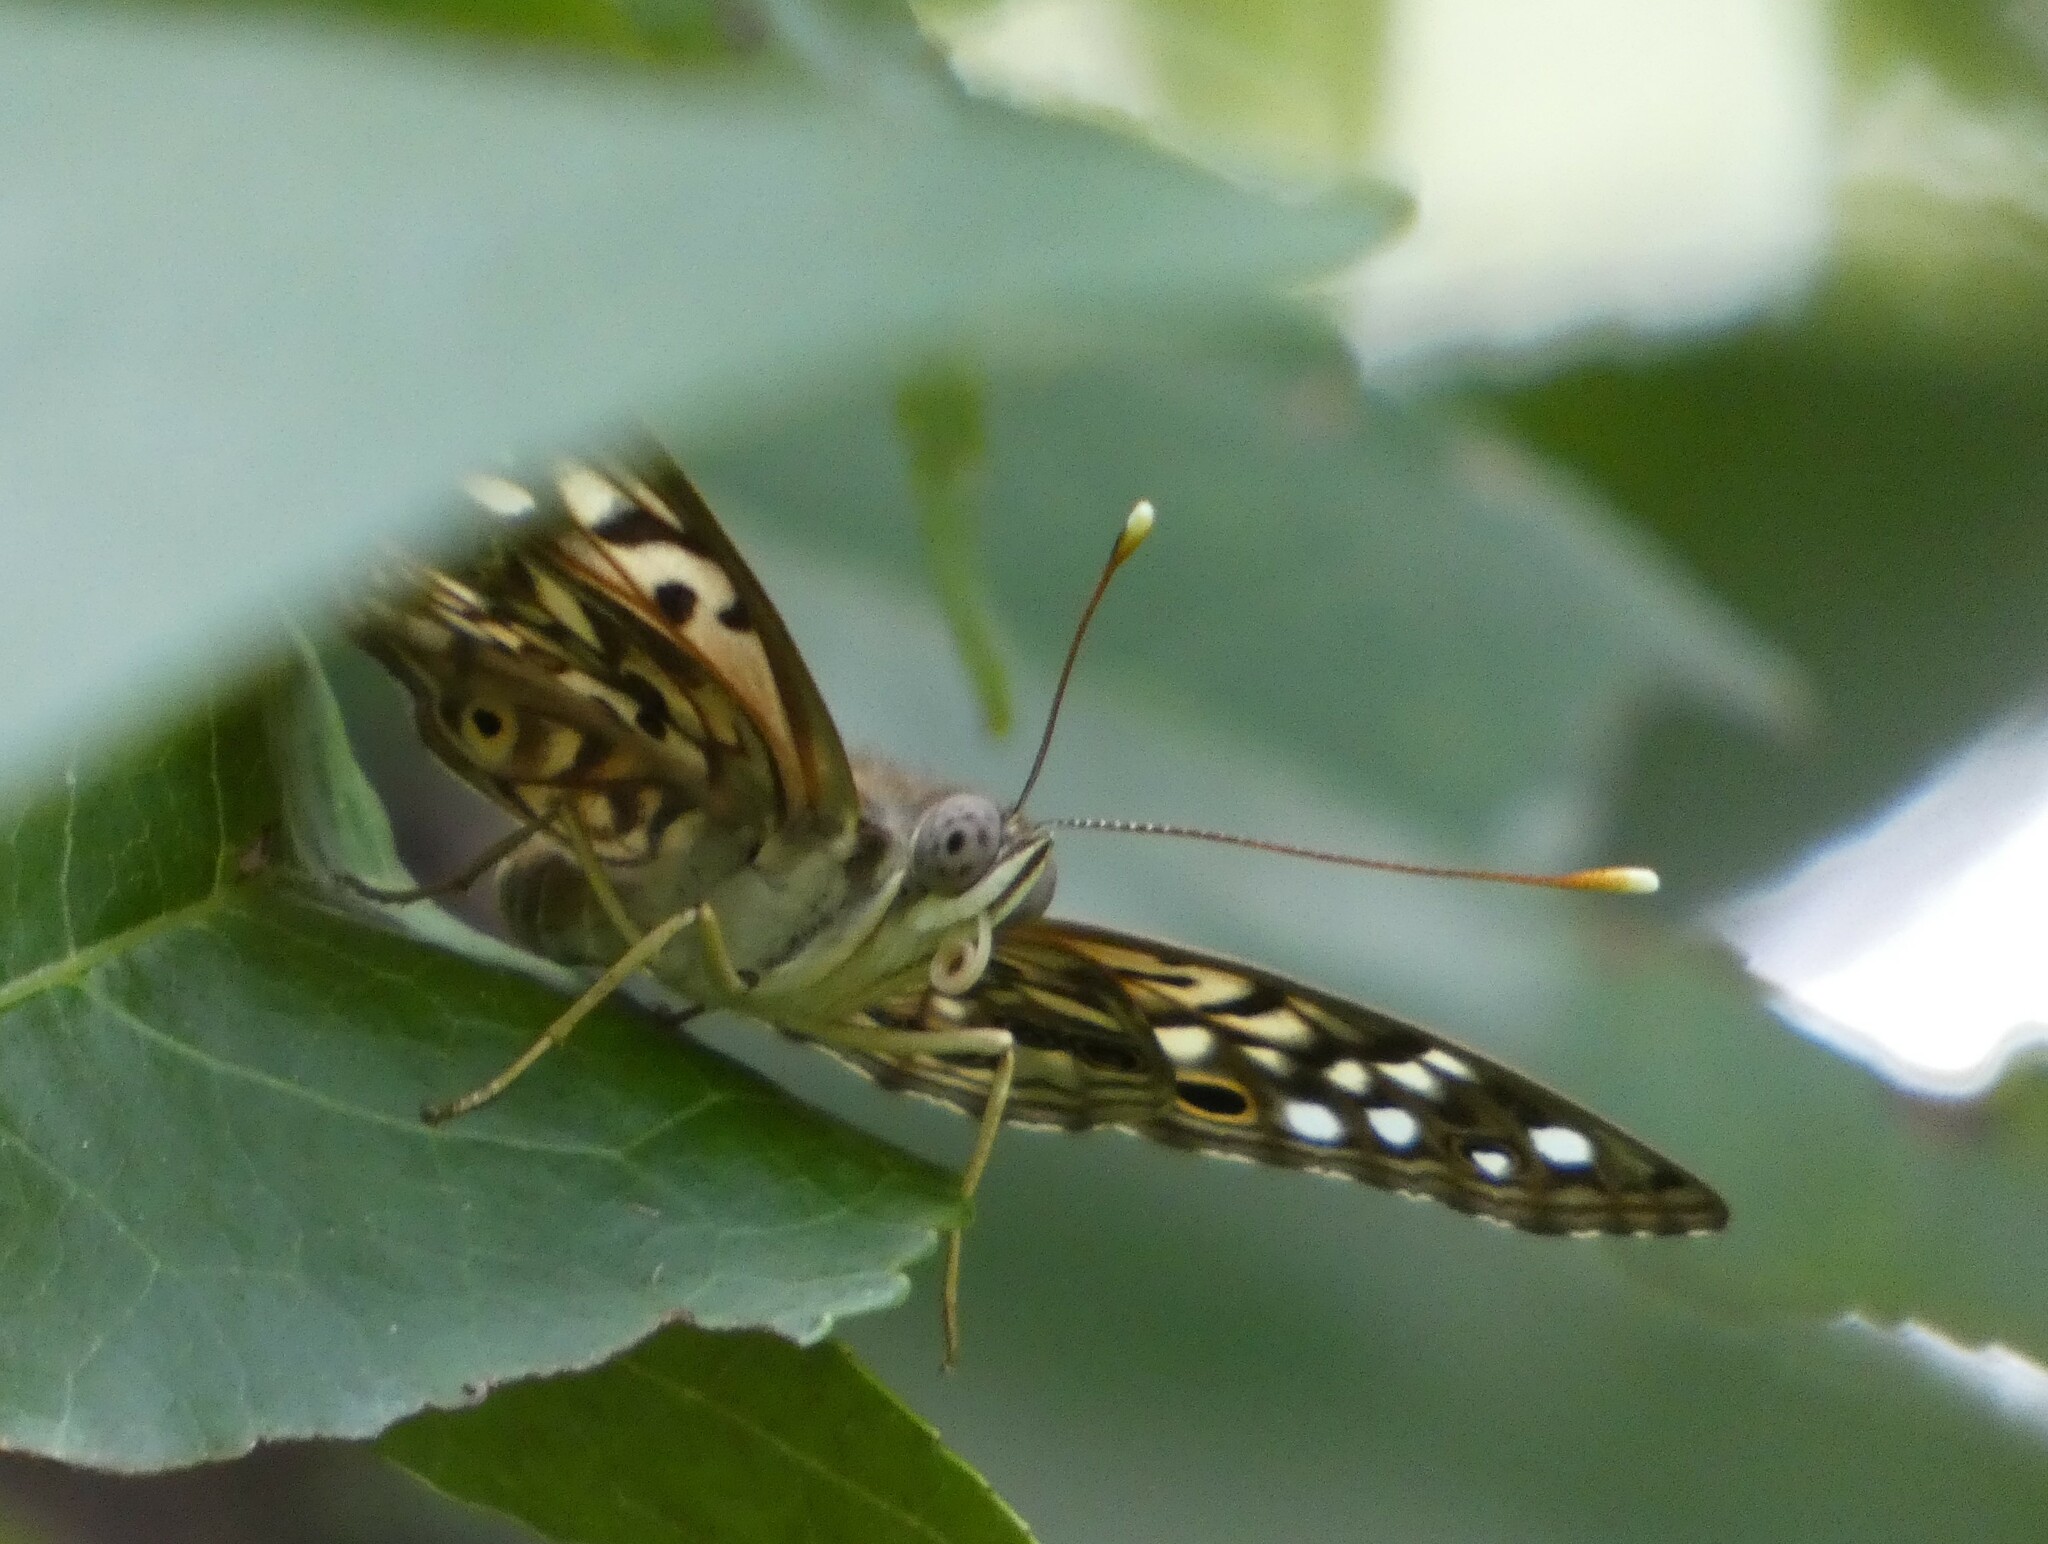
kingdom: Animalia
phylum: Arthropoda
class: Insecta
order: Lepidoptera
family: Nymphalidae
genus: Asterocampa
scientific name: Asterocampa celtis
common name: Hackberry emperor
